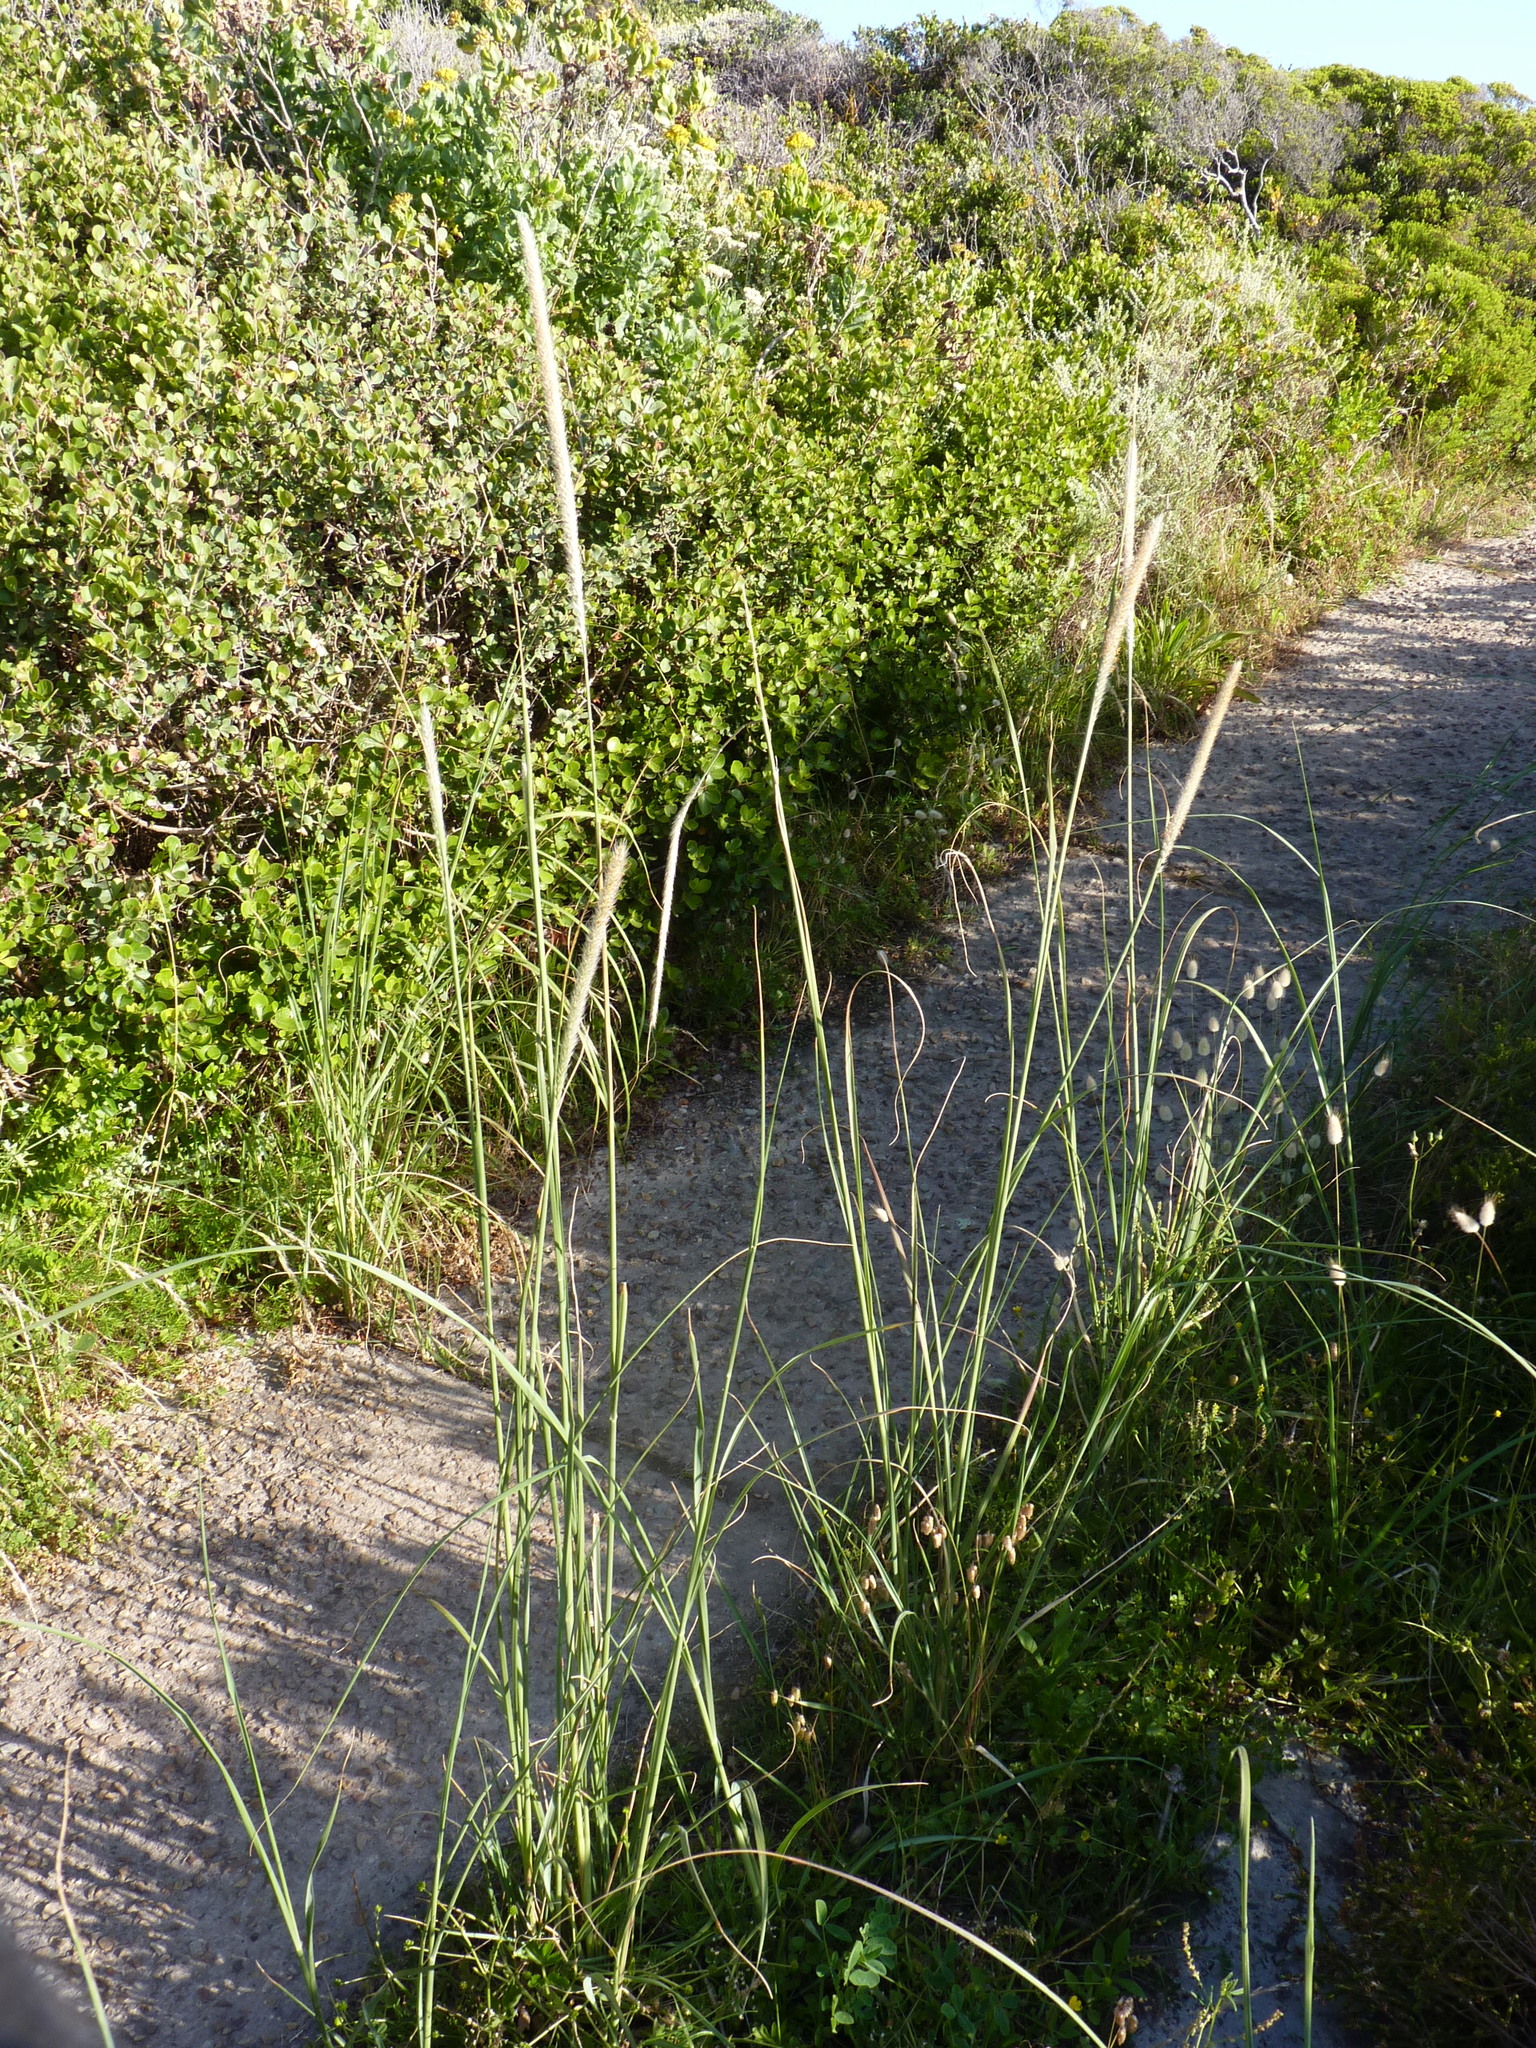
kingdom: Plantae
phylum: Tracheophyta
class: Liliopsida
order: Poales
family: Poaceae
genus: Cenchrus
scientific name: Cenchrus caudatus
